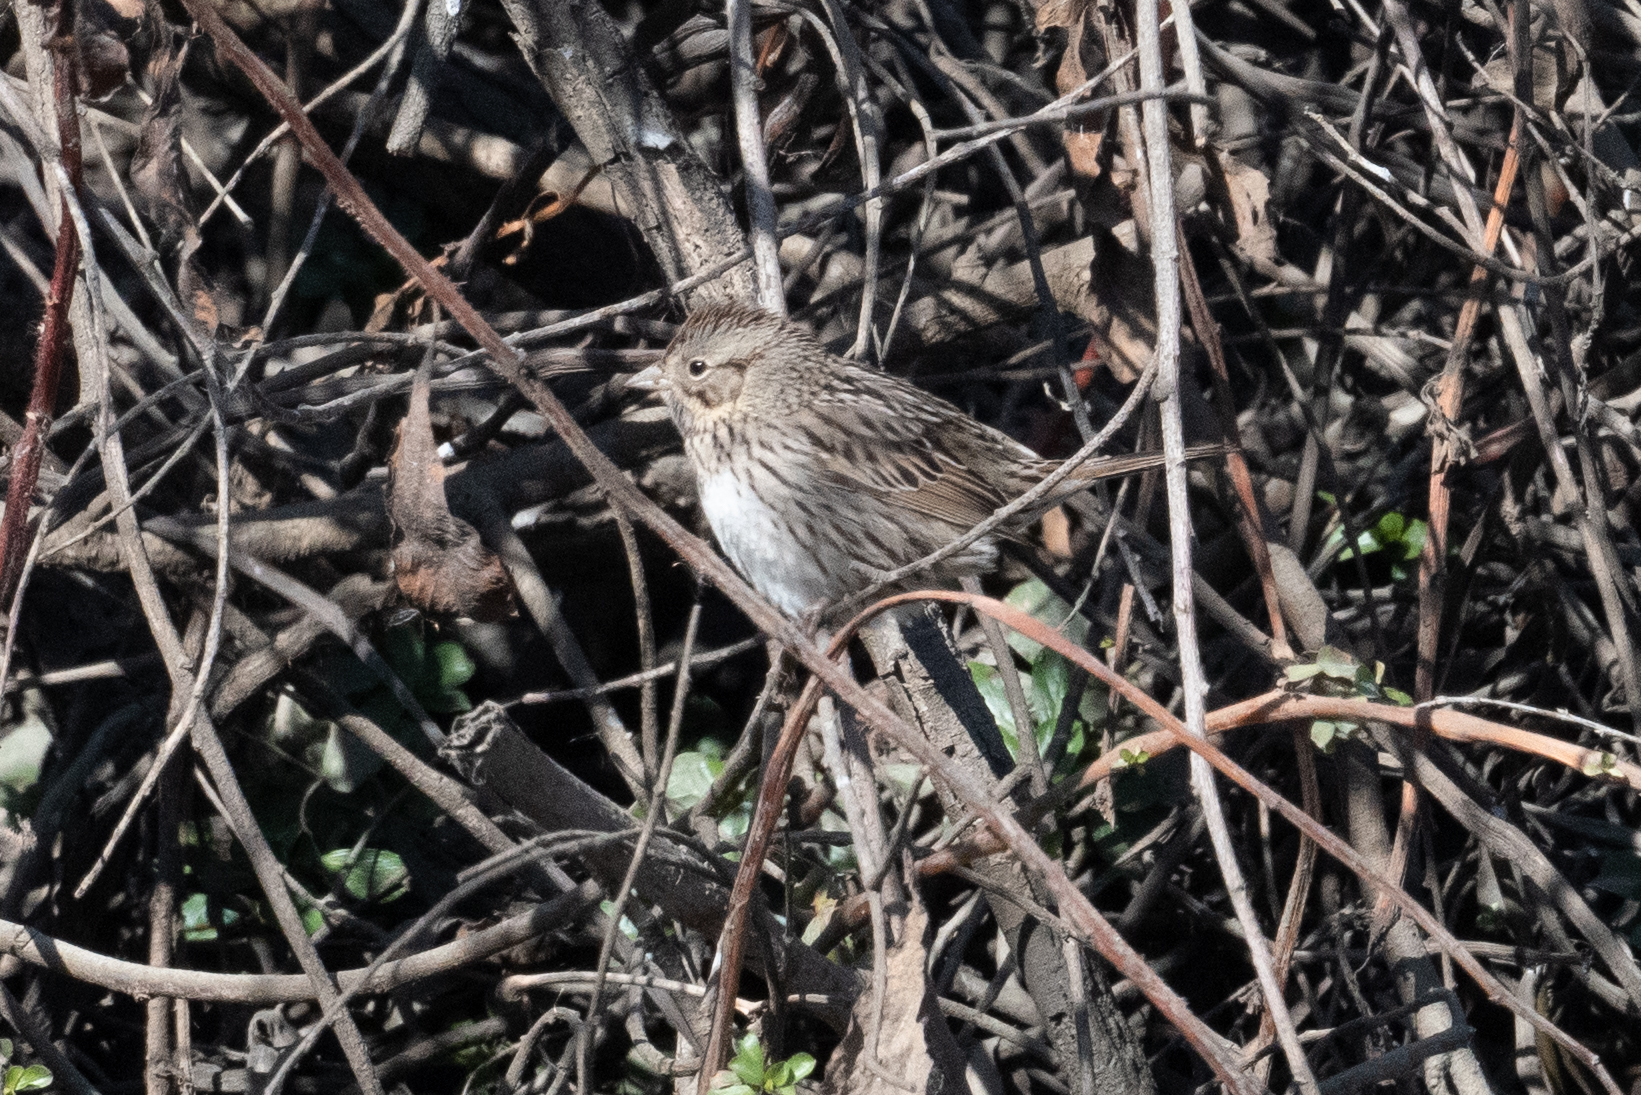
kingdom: Animalia
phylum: Chordata
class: Aves
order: Passeriformes
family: Passerellidae
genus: Melospiza
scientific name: Melospiza lincolnii
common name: Lincoln's sparrow
